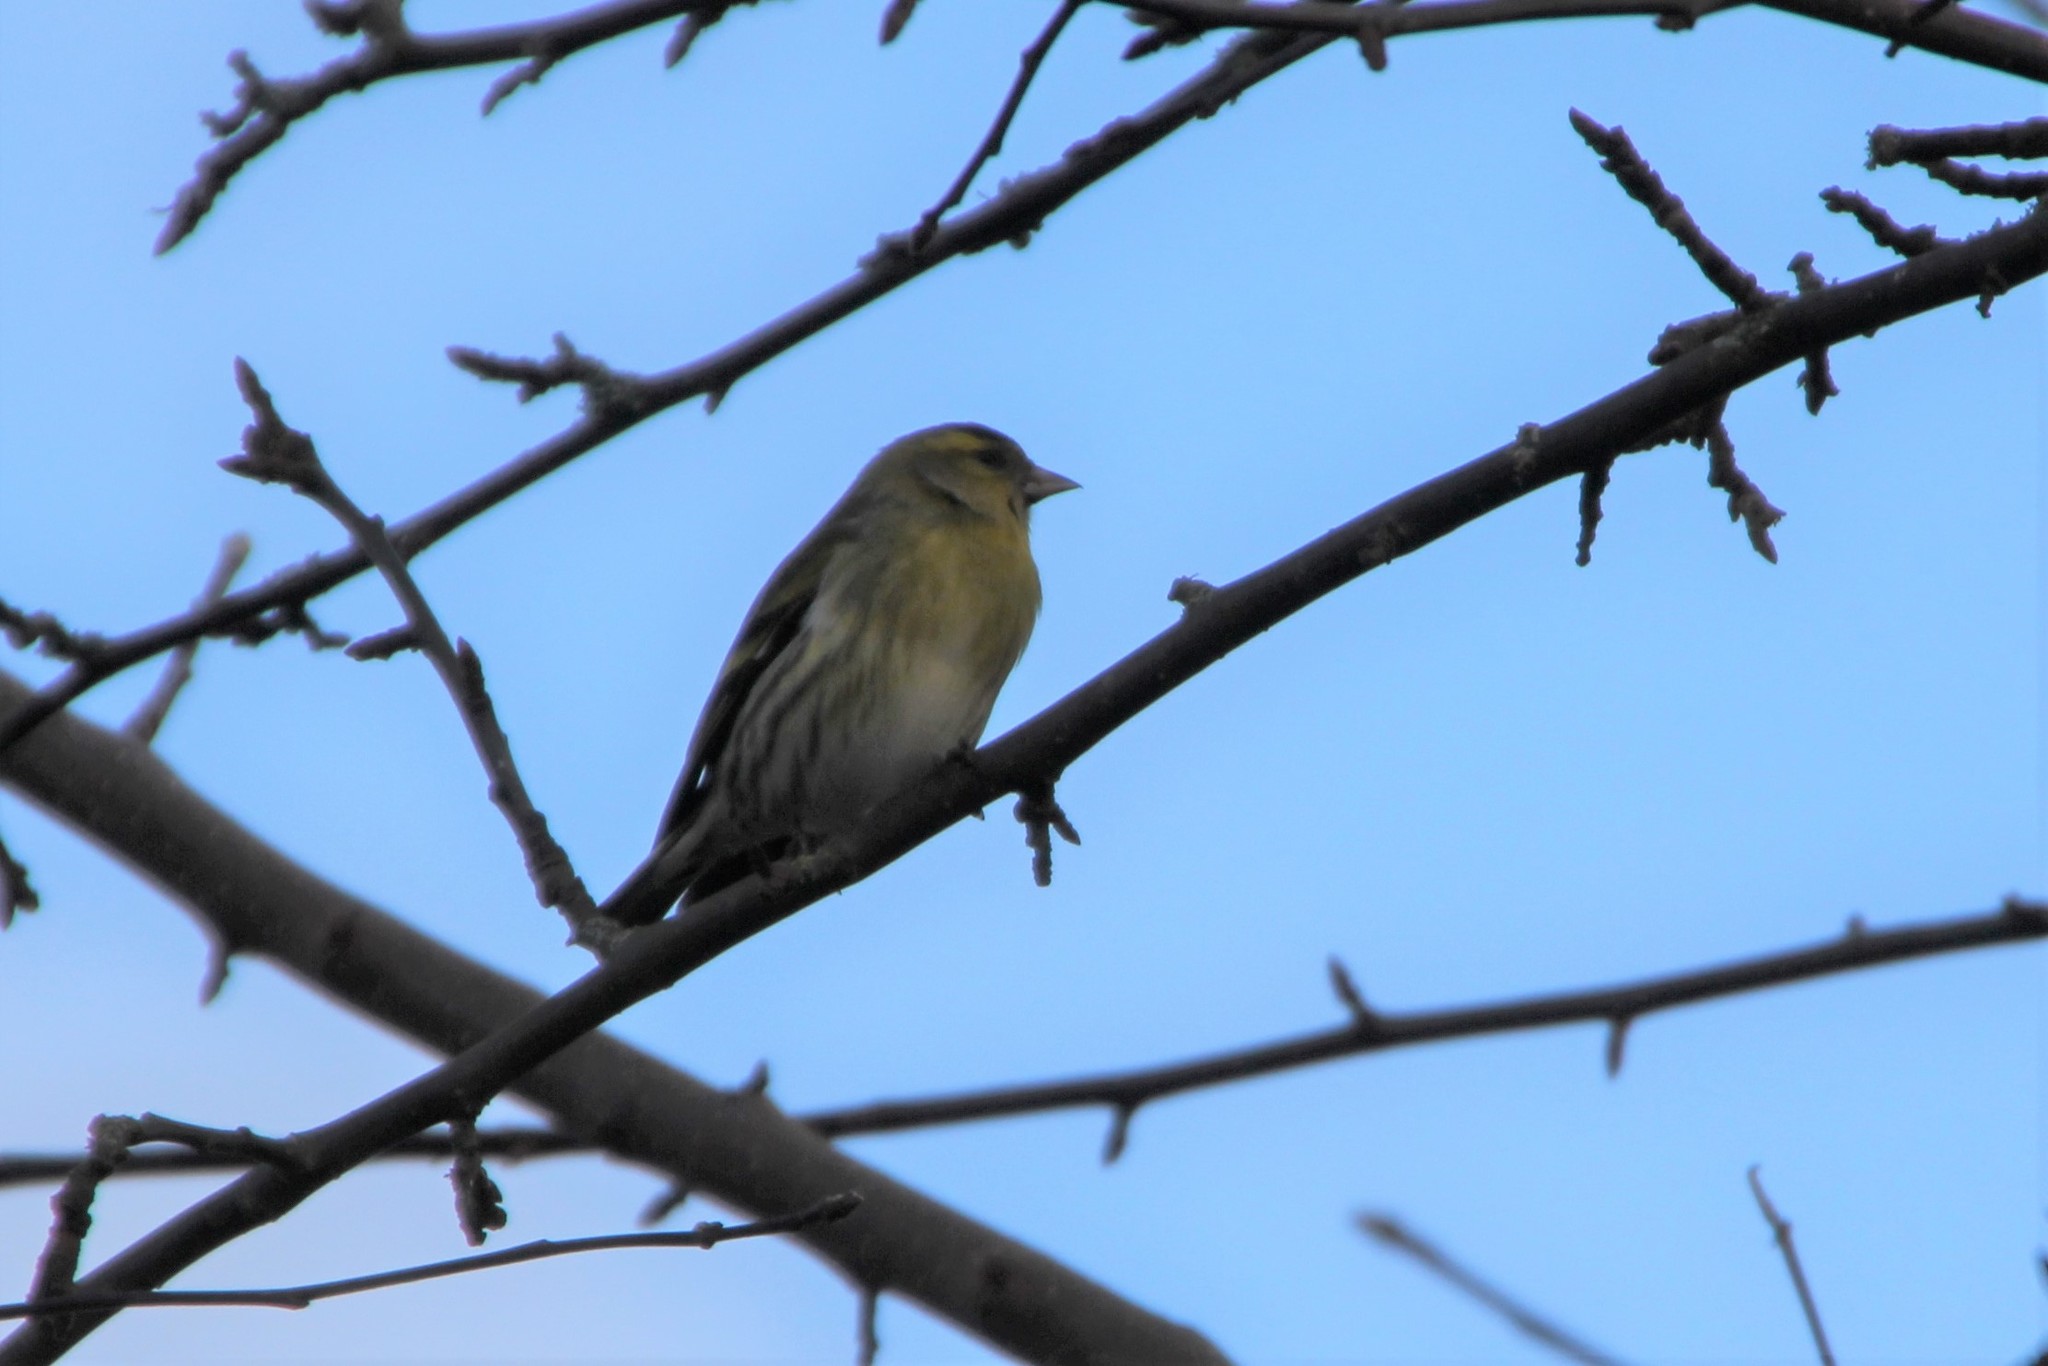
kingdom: Animalia
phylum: Chordata
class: Aves
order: Passeriformes
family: Fringillidae
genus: Spinus
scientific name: Spinus spinus
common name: Eurasian siskin
